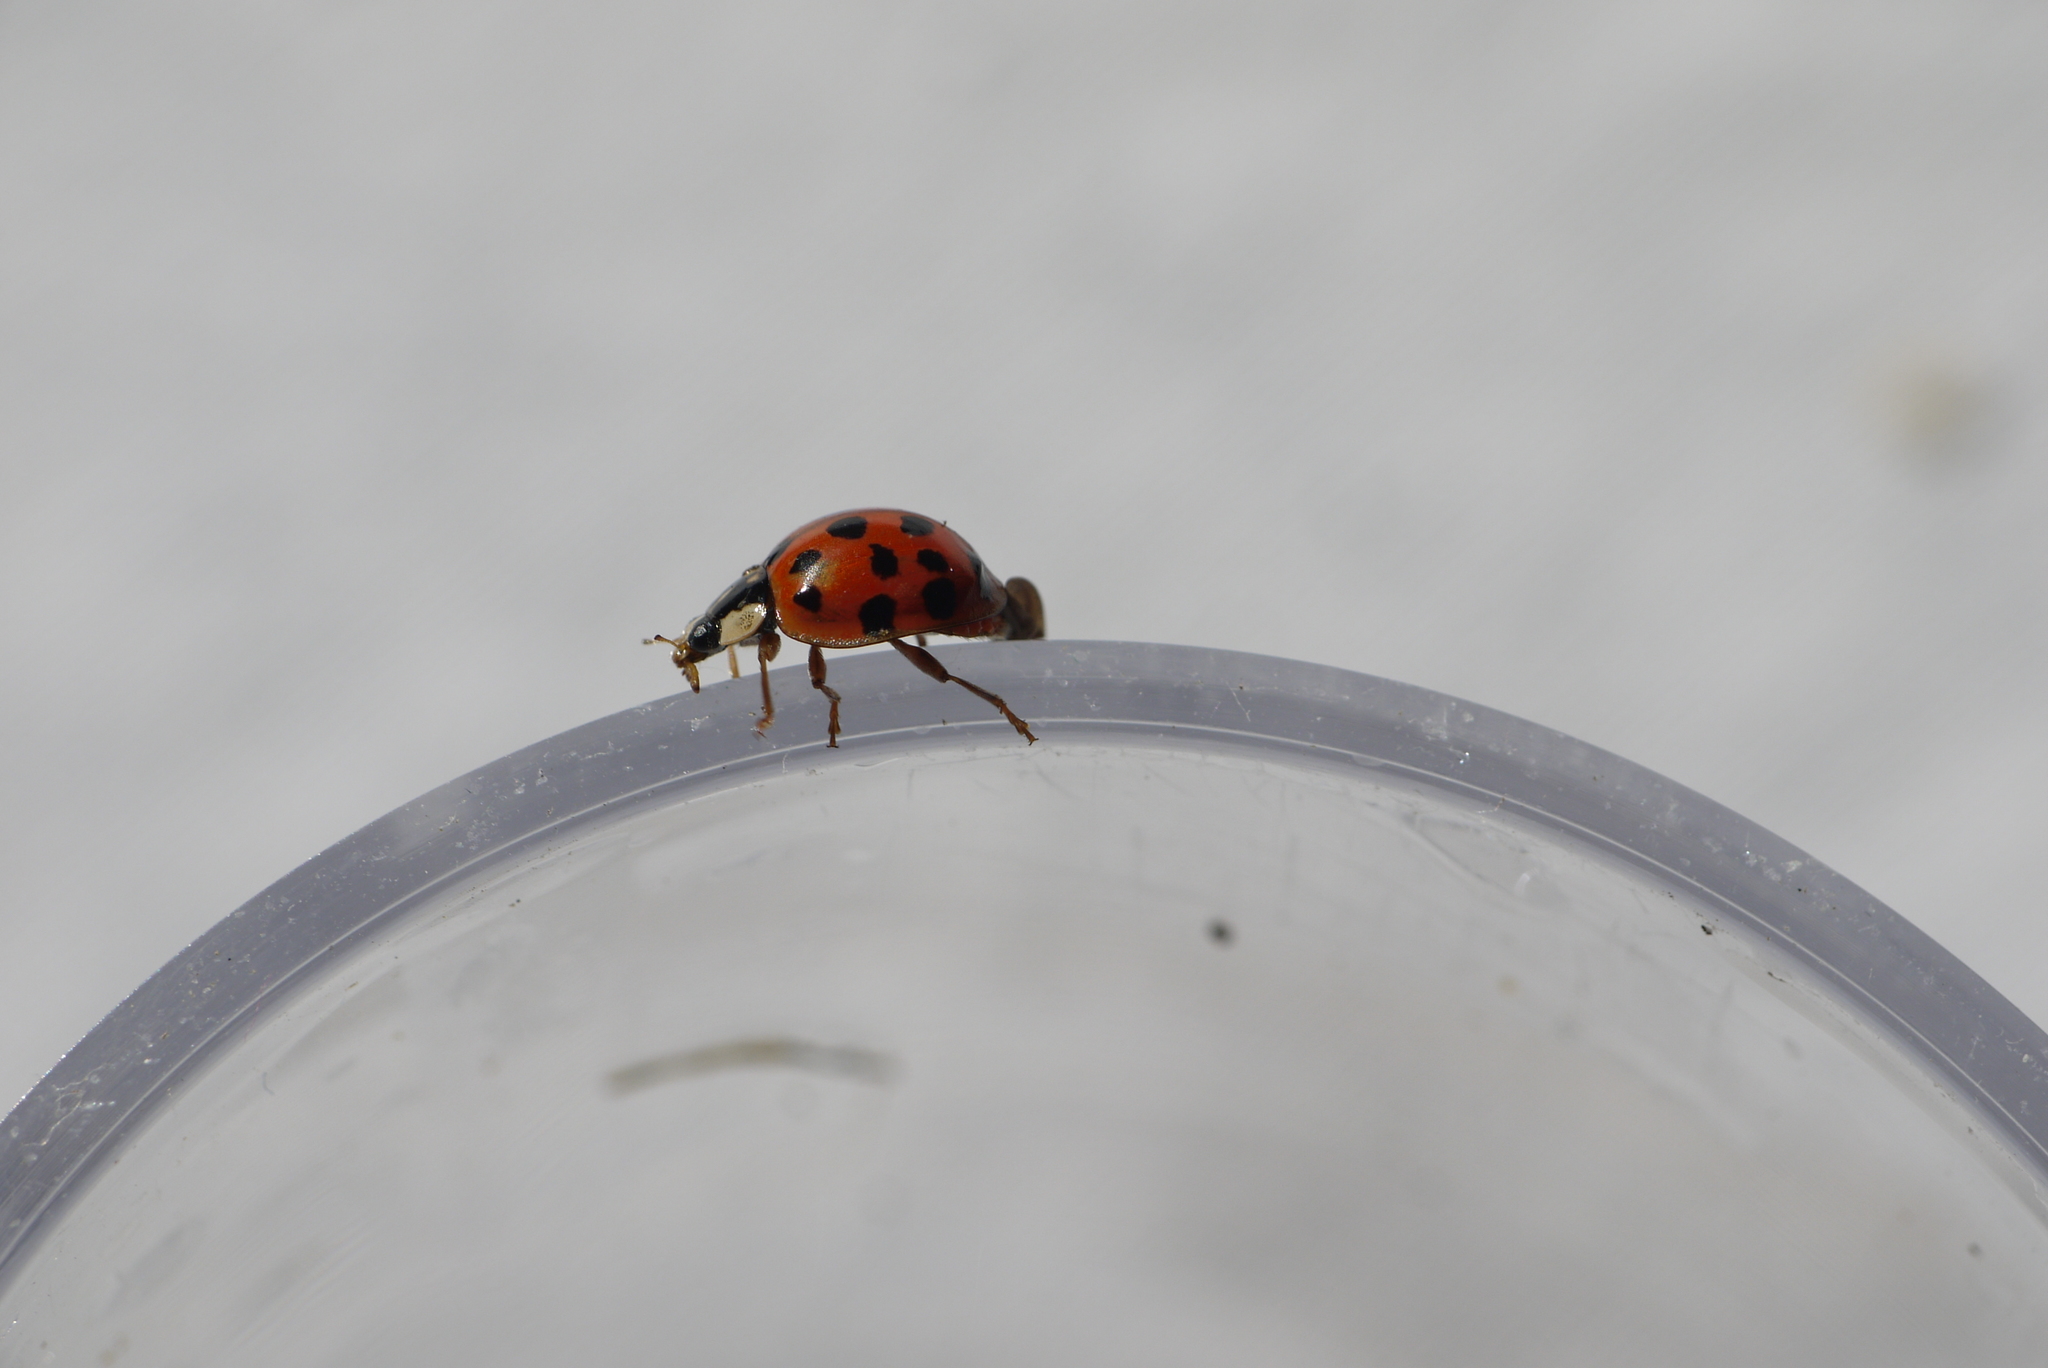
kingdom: Animalia
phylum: Arthropoda
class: Insecta
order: Coleoptera
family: Coccinellidae
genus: Harmonia
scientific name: Harmonia axyridis
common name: Harlequin ladybird
